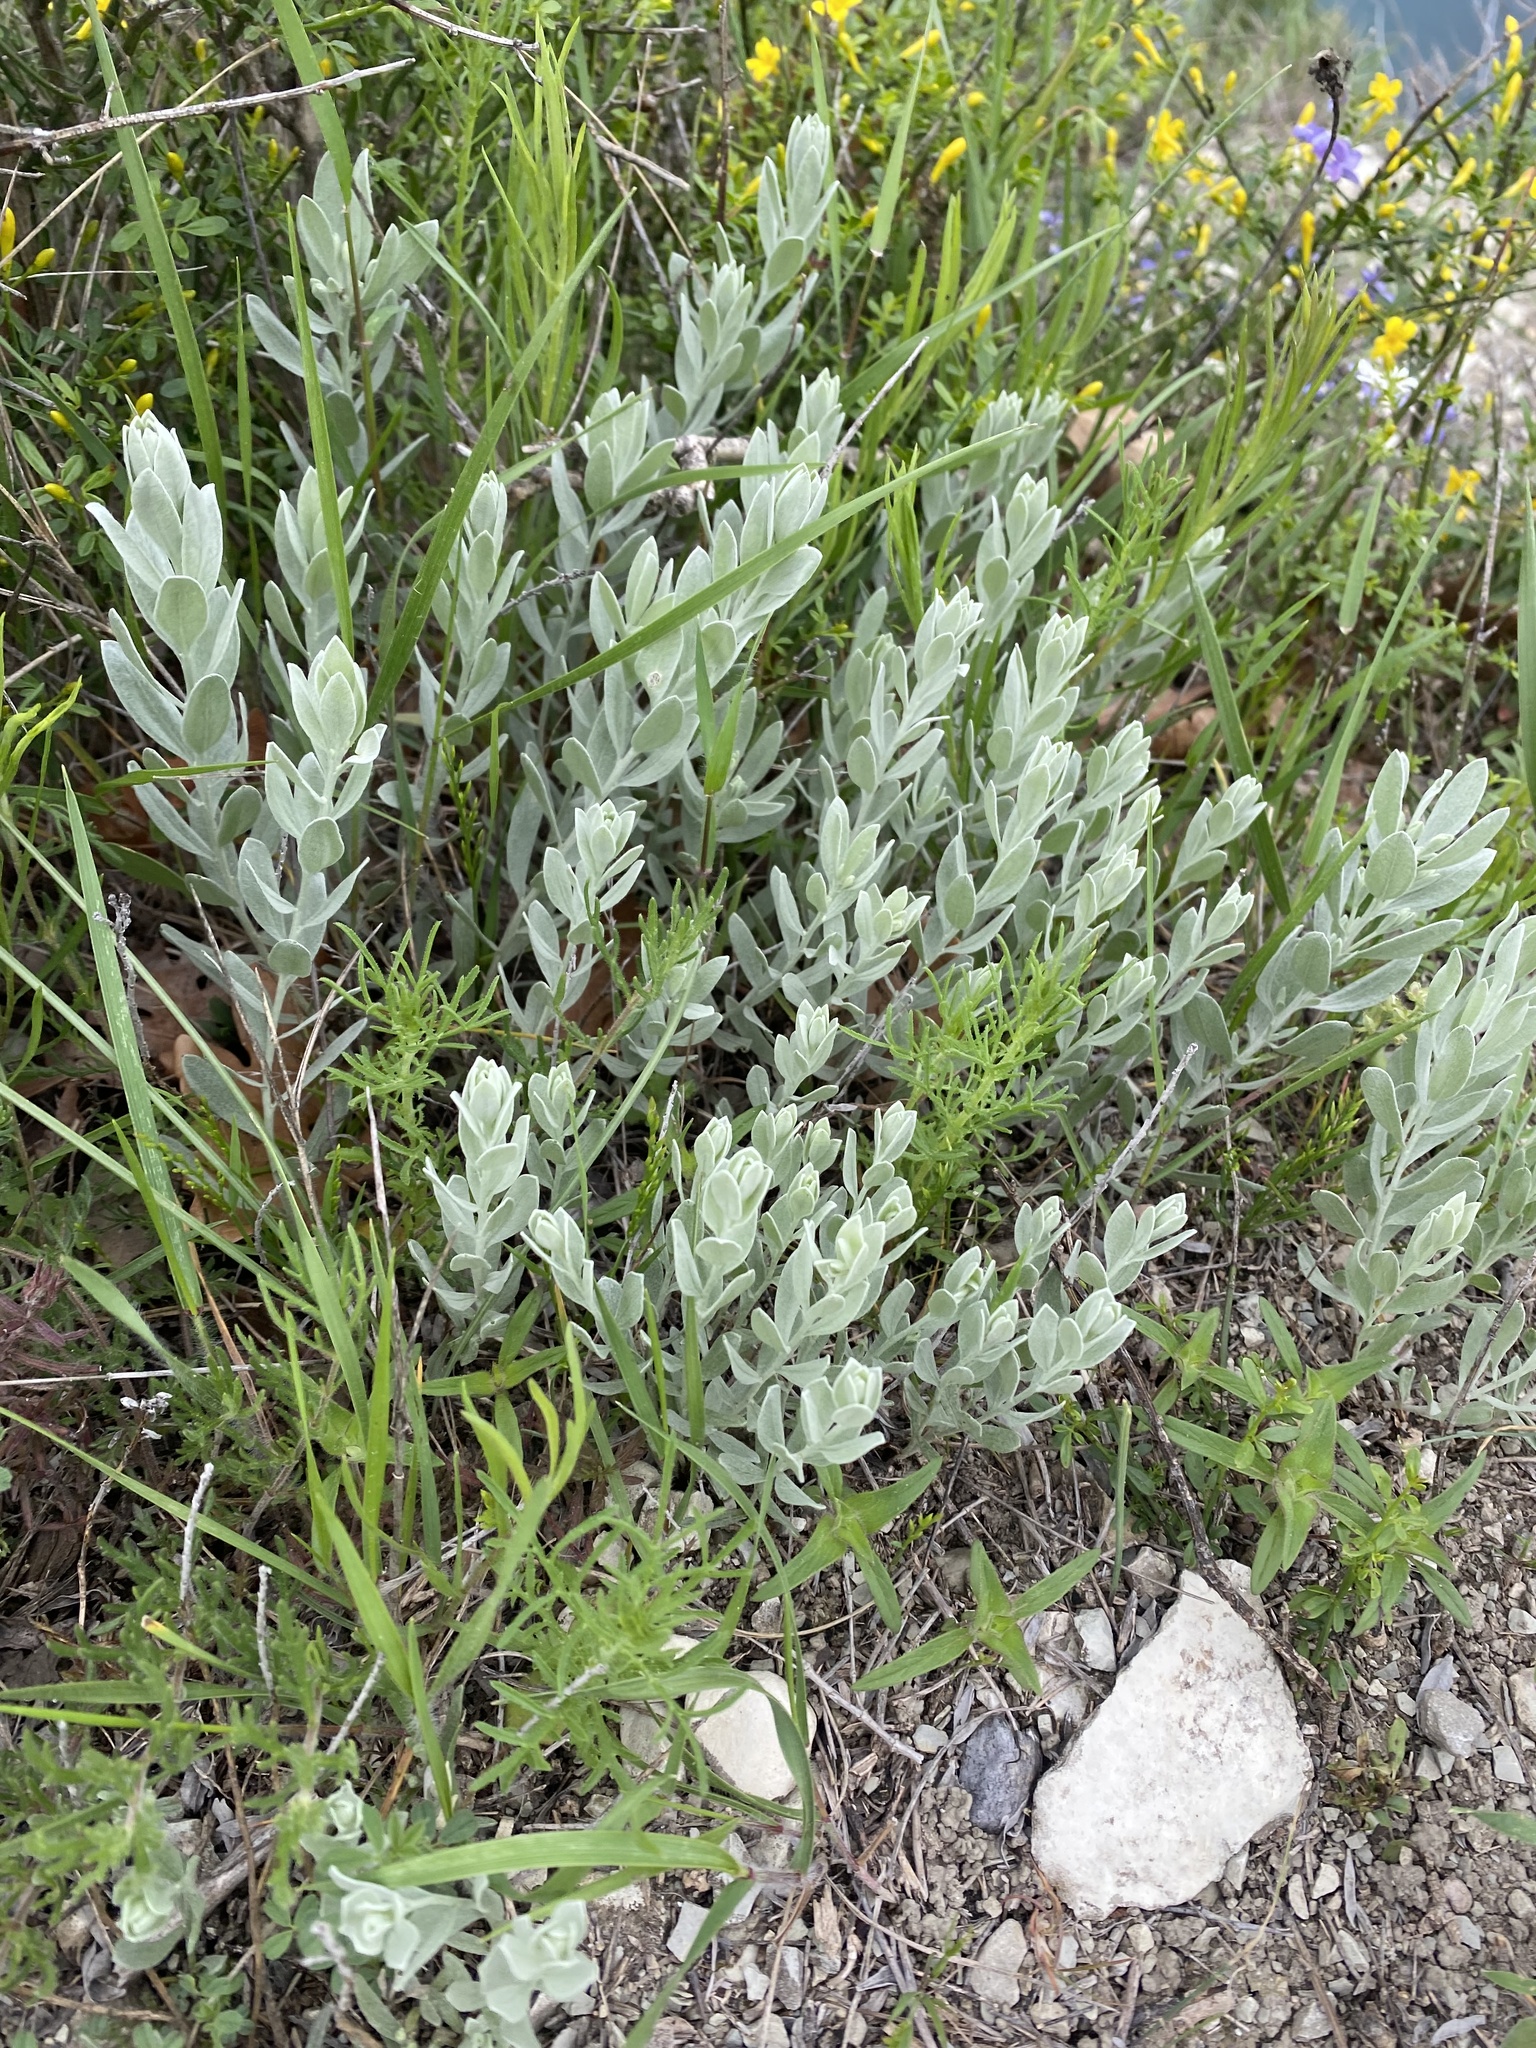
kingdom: Plantae
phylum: Tracheophyta
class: Magnoliopsida
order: Asterales
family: Asteraceae
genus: Galatella
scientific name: Galatella villosa
